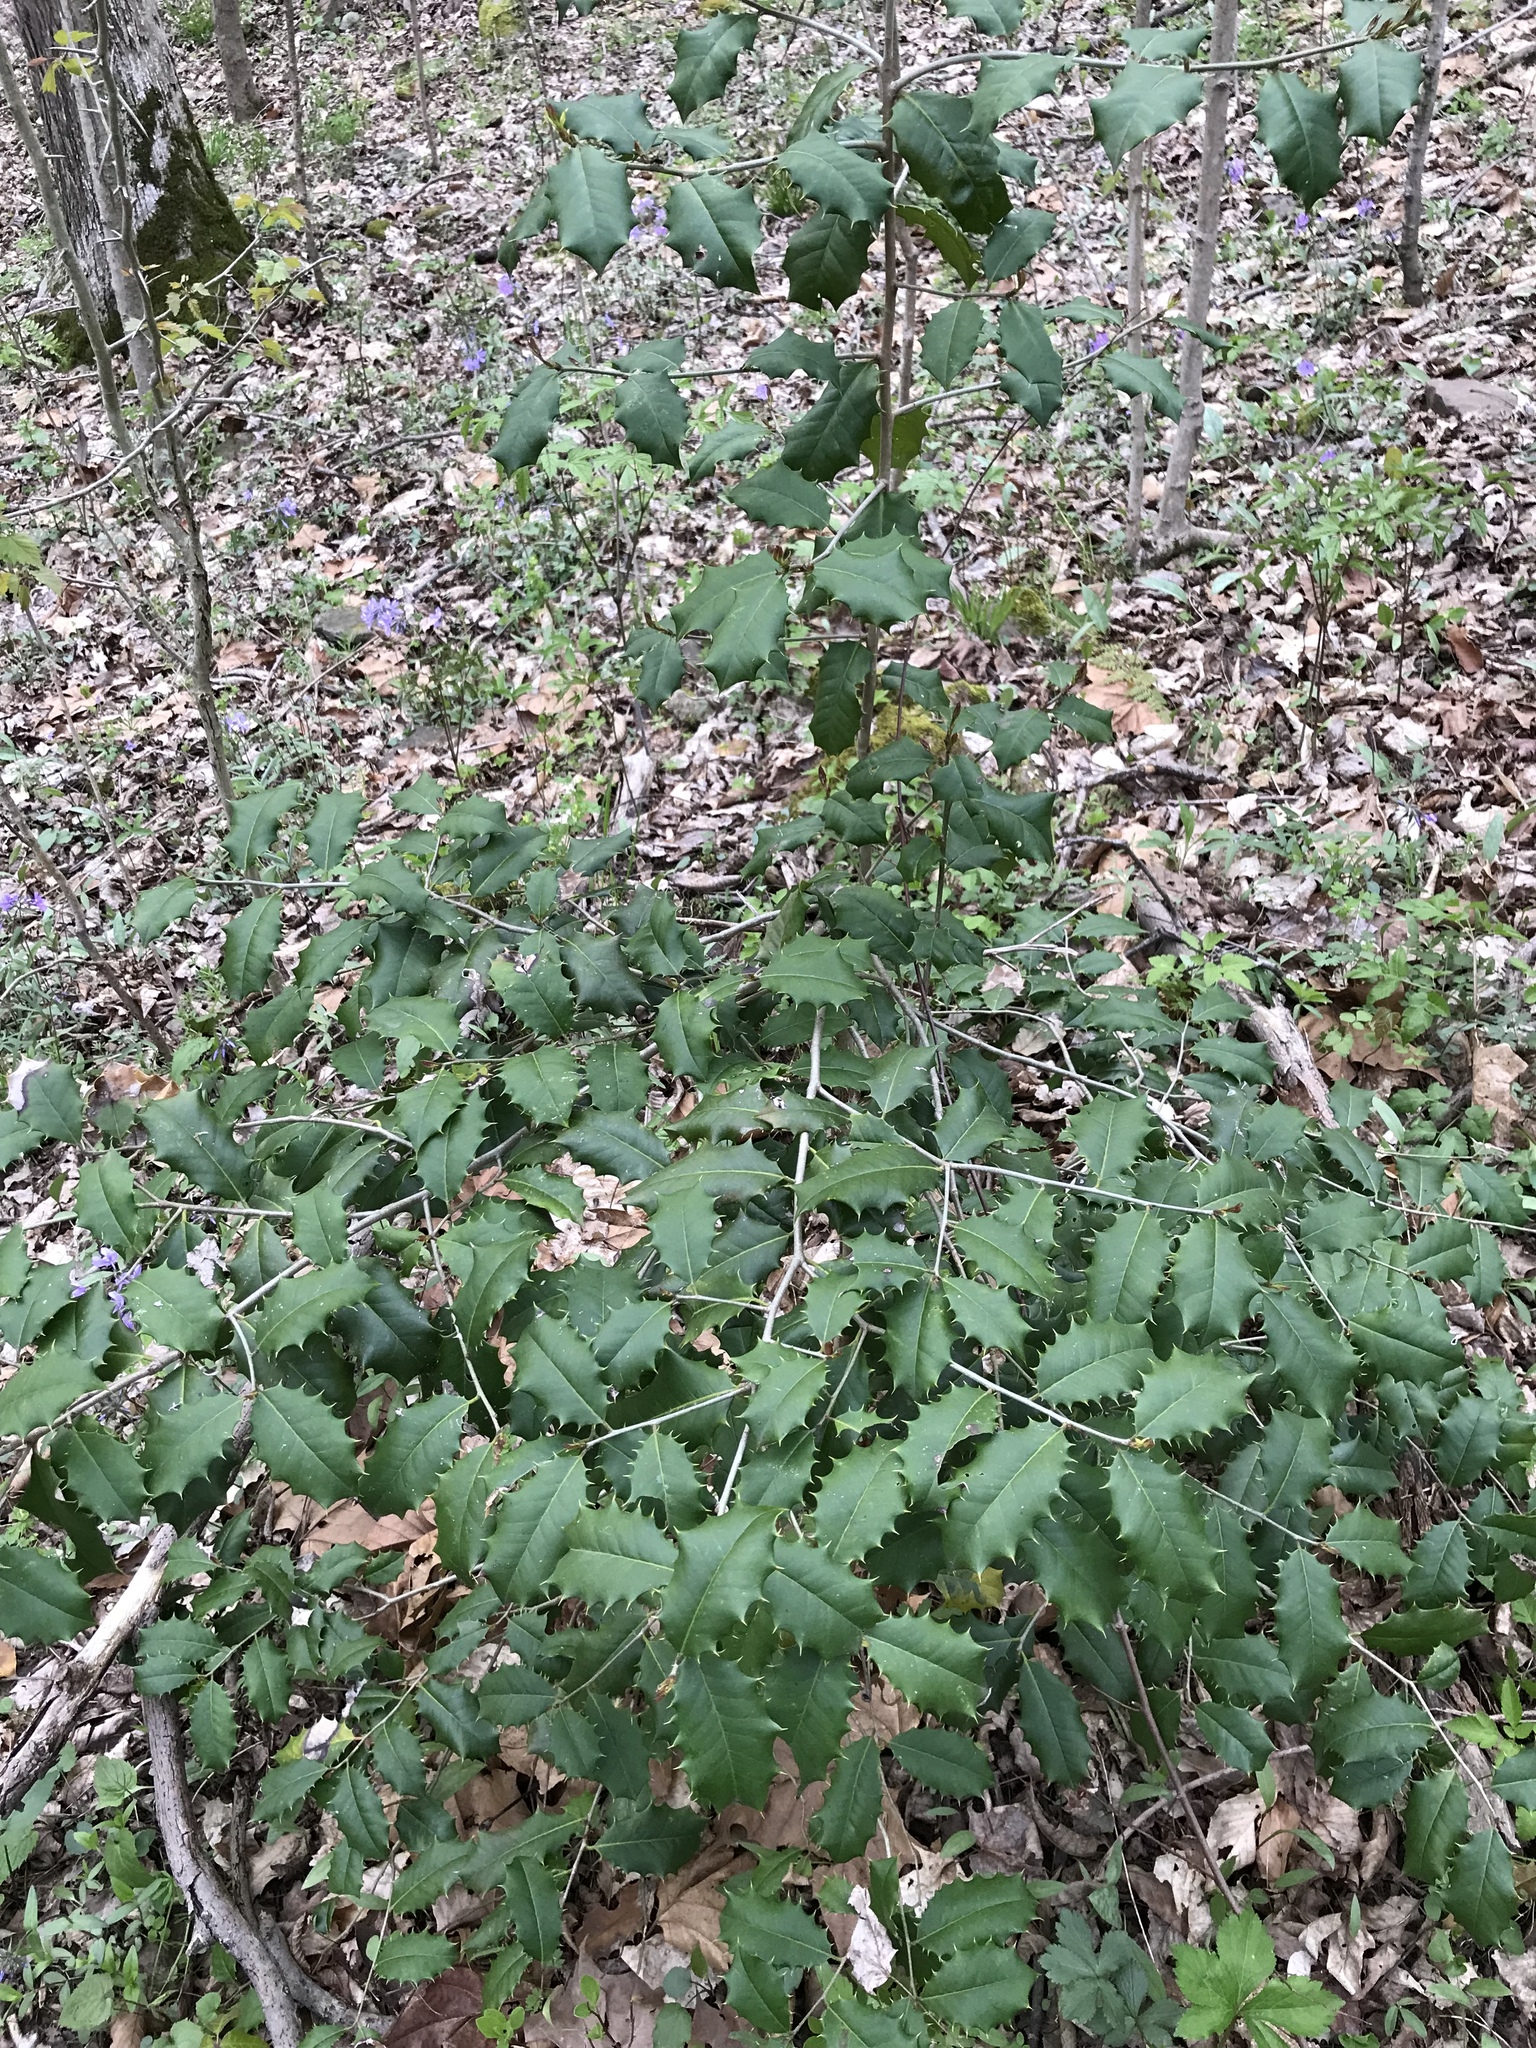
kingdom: Plantae
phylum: Tracheophyta
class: Magnoliopsida
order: Aquifoliales
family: Aquifoliaceae
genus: Ilex
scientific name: Ilex opaca
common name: American holly
